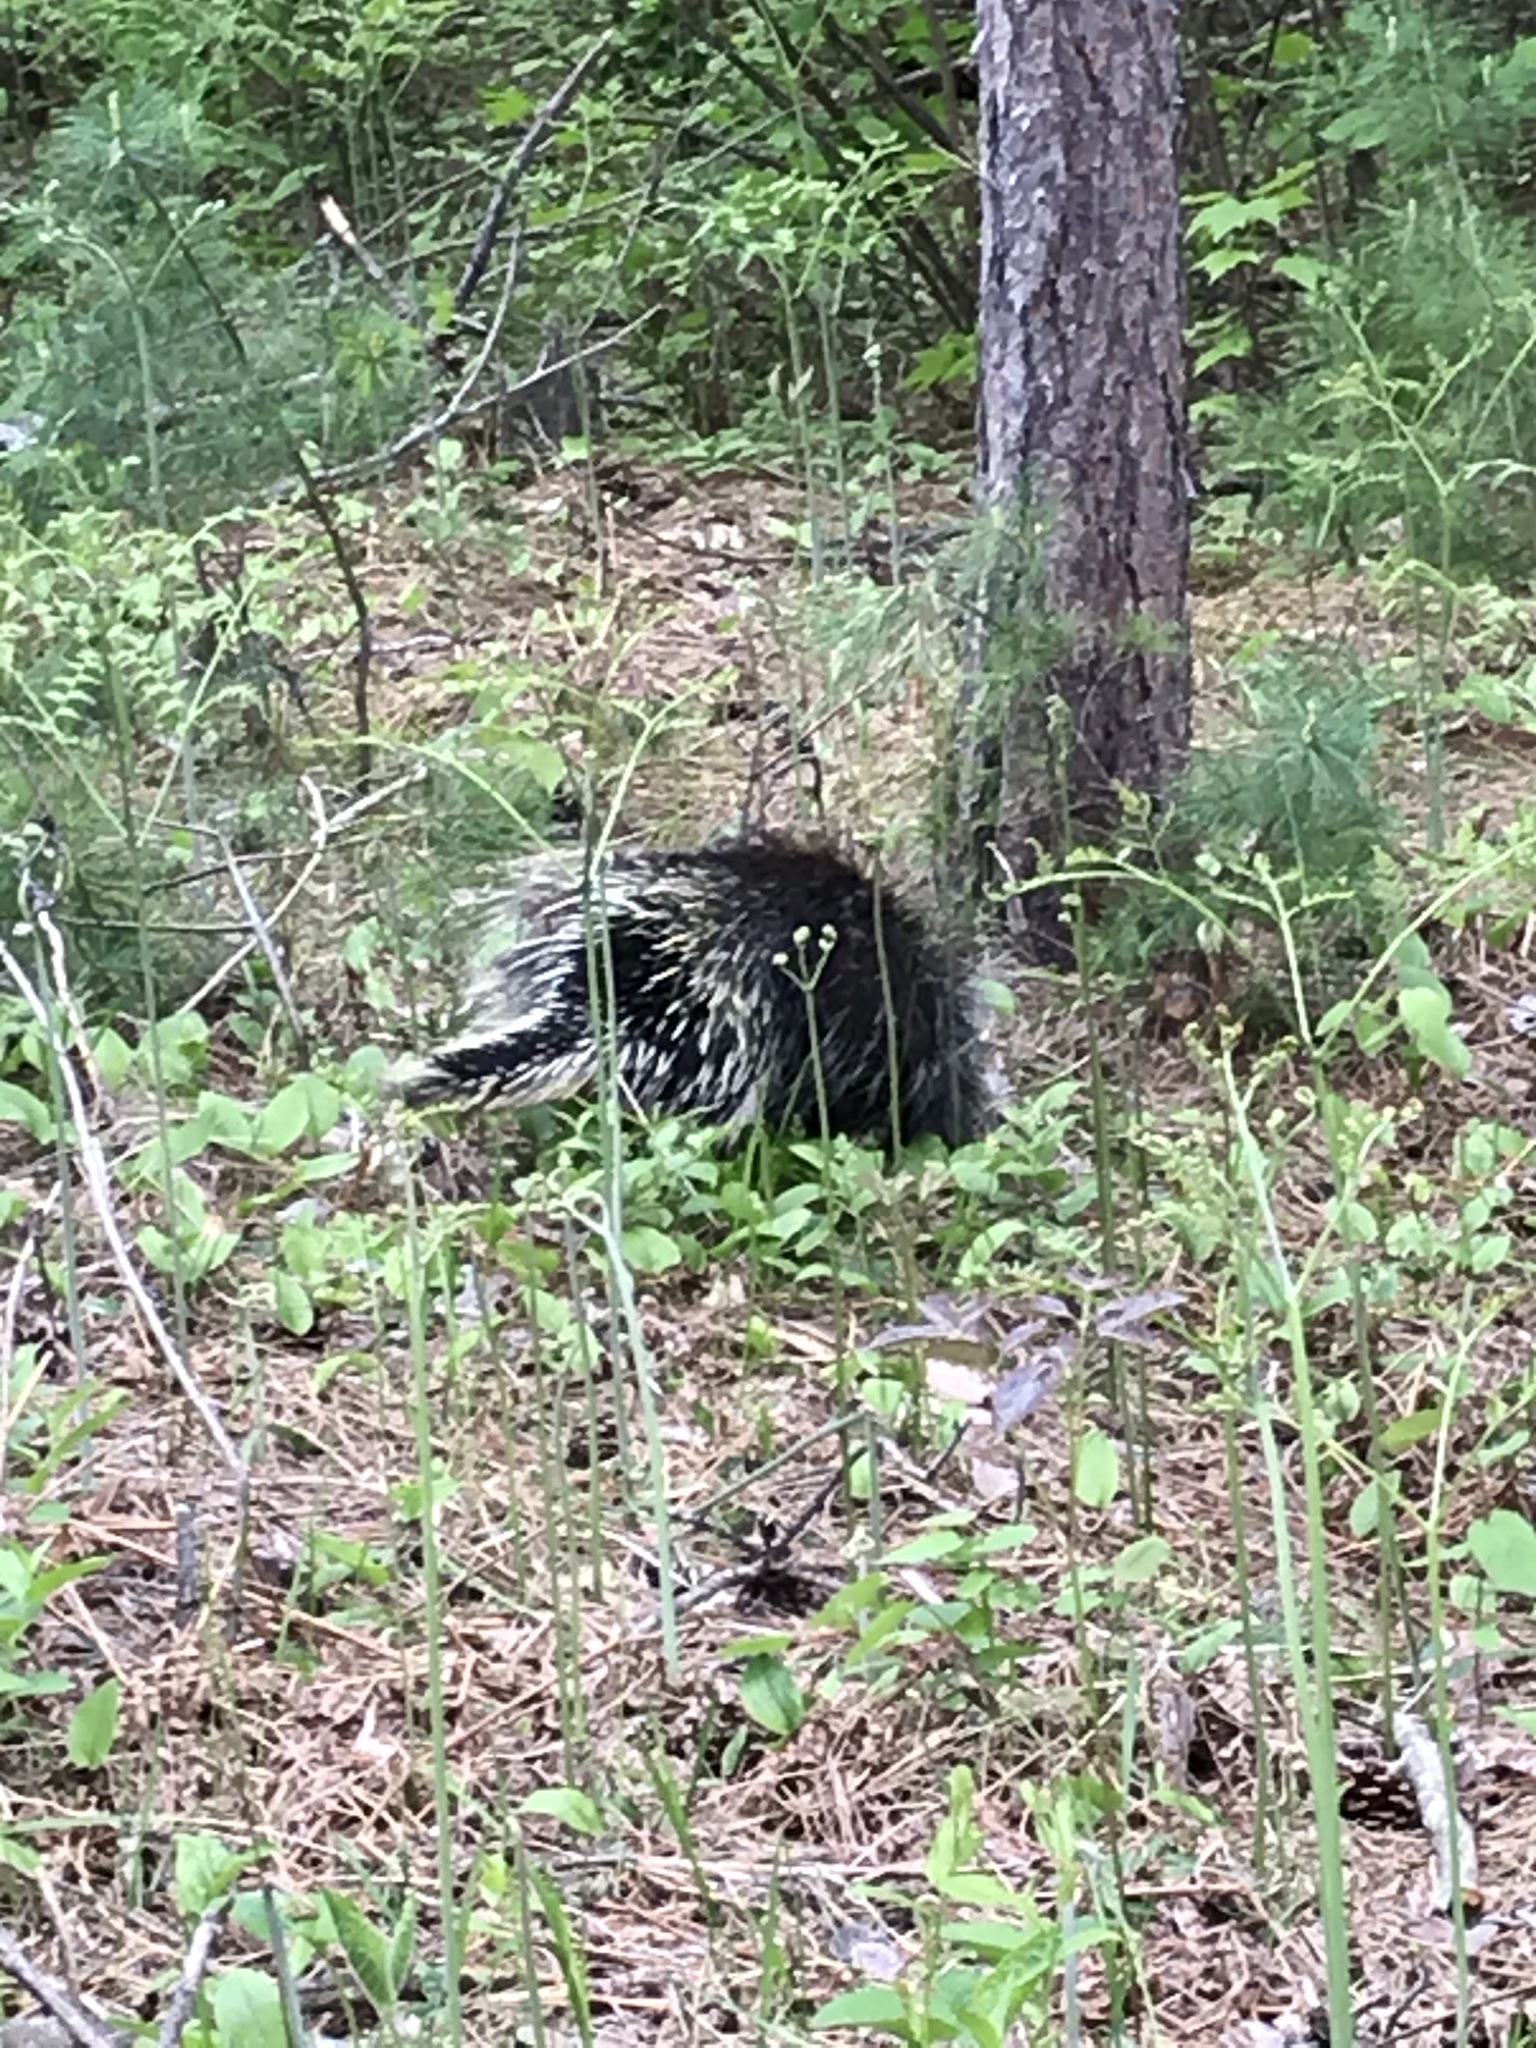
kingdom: Animalia
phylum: Chordata
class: Mammalia
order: Rodentia
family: Erethizontidae
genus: Erethizon
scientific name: Erethizon dorsatus
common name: North american porcupine
